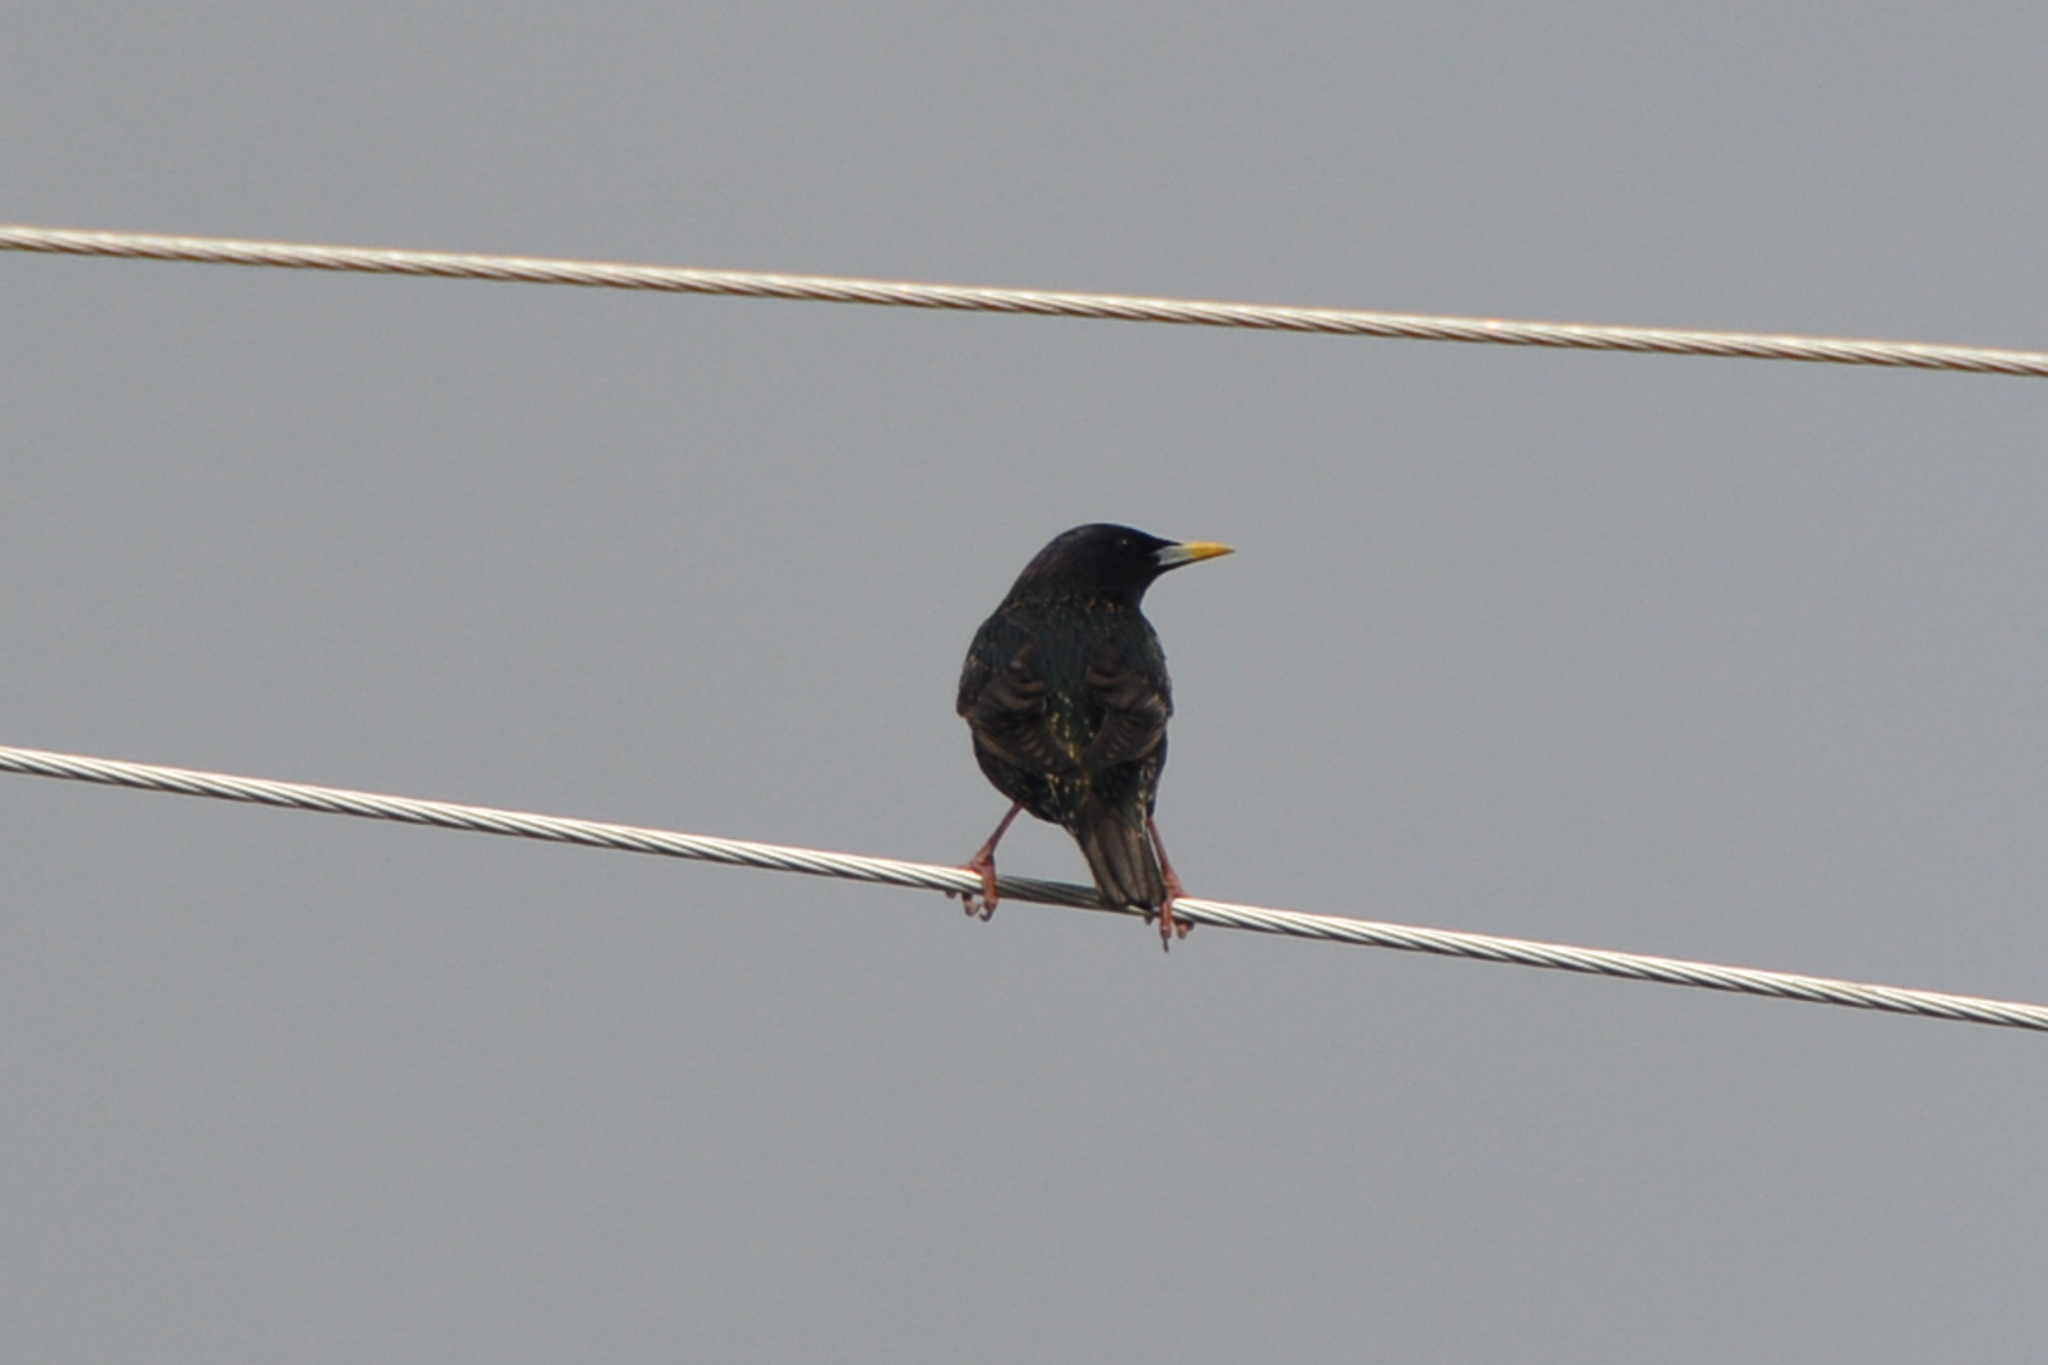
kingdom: Animalia
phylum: Chordata
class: Aves
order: Passeriformes
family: Sturnidae
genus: Sturnus
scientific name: Sturnus vulgaris
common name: Common starling
